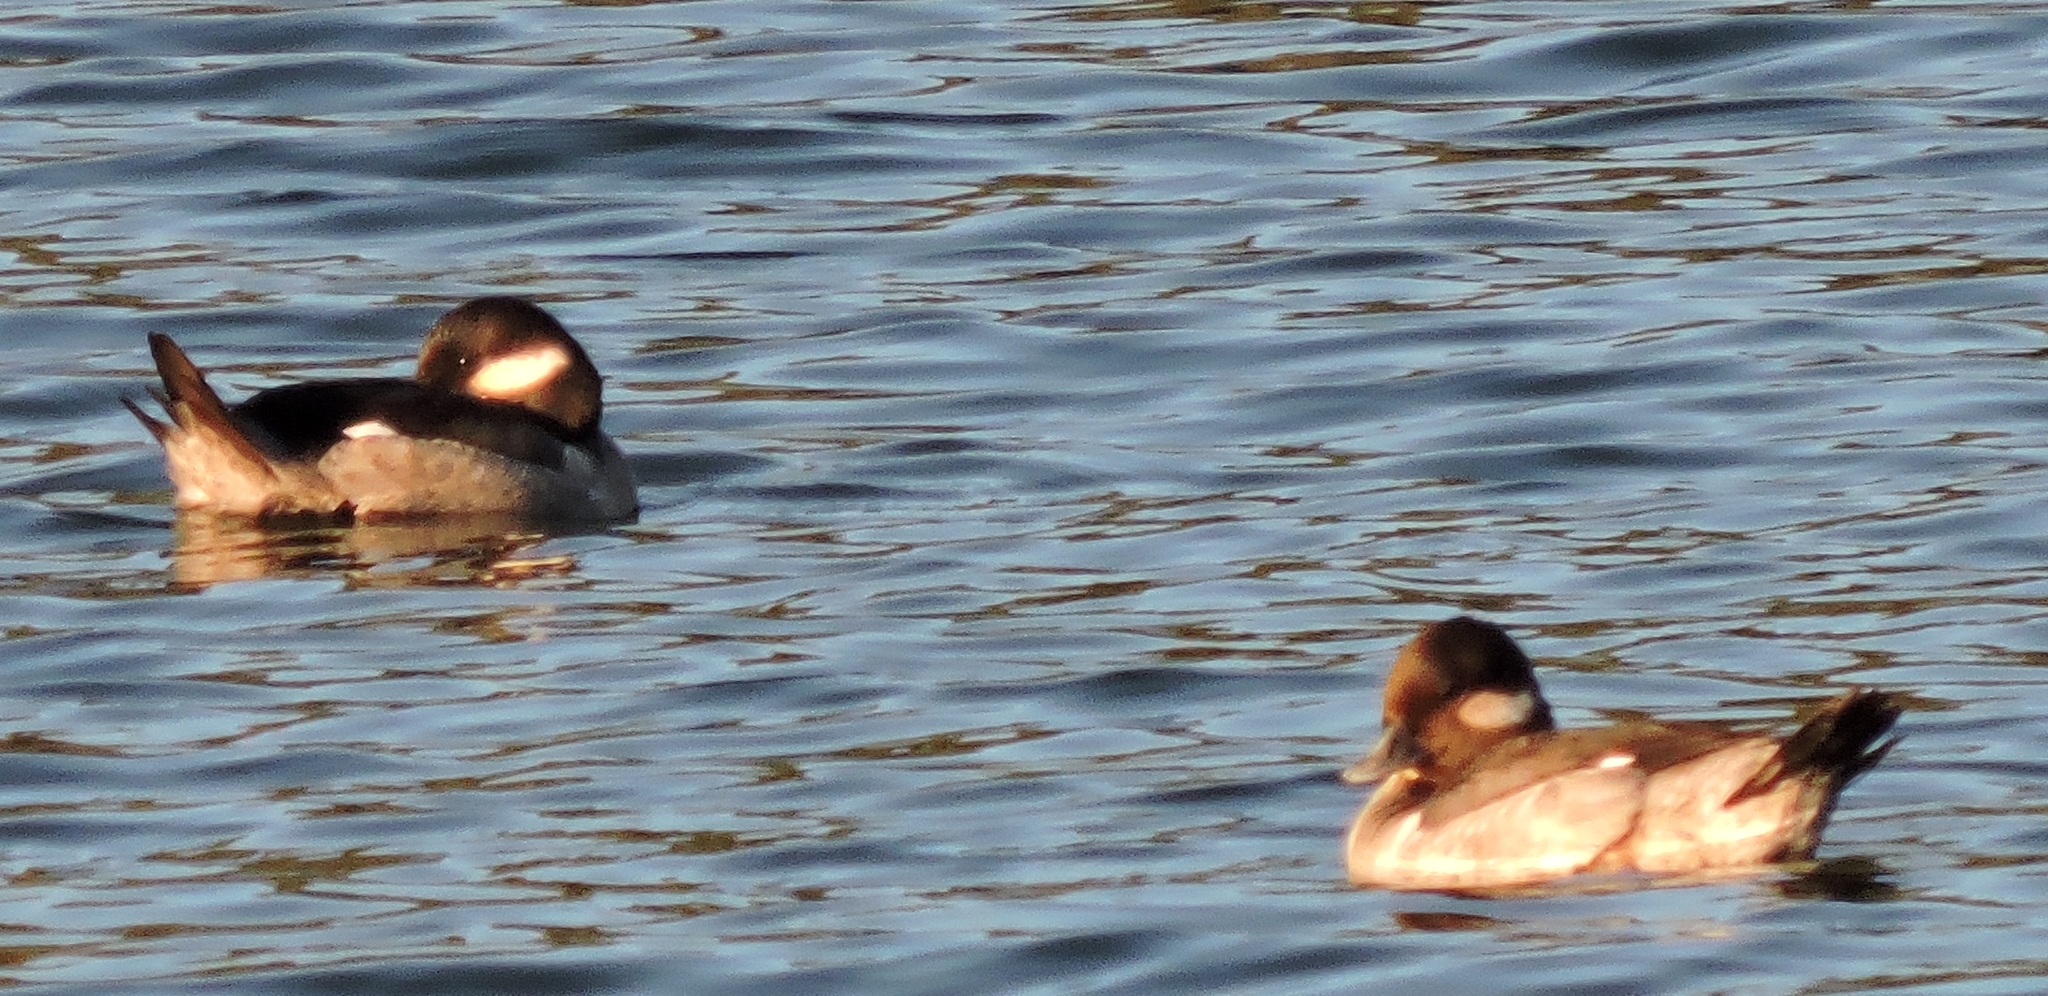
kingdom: Animalia
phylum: Chordata
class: Aves
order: Anseriformes
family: Anatidae
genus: Bucephala
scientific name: Bucephala albeola
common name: Bufflehead
